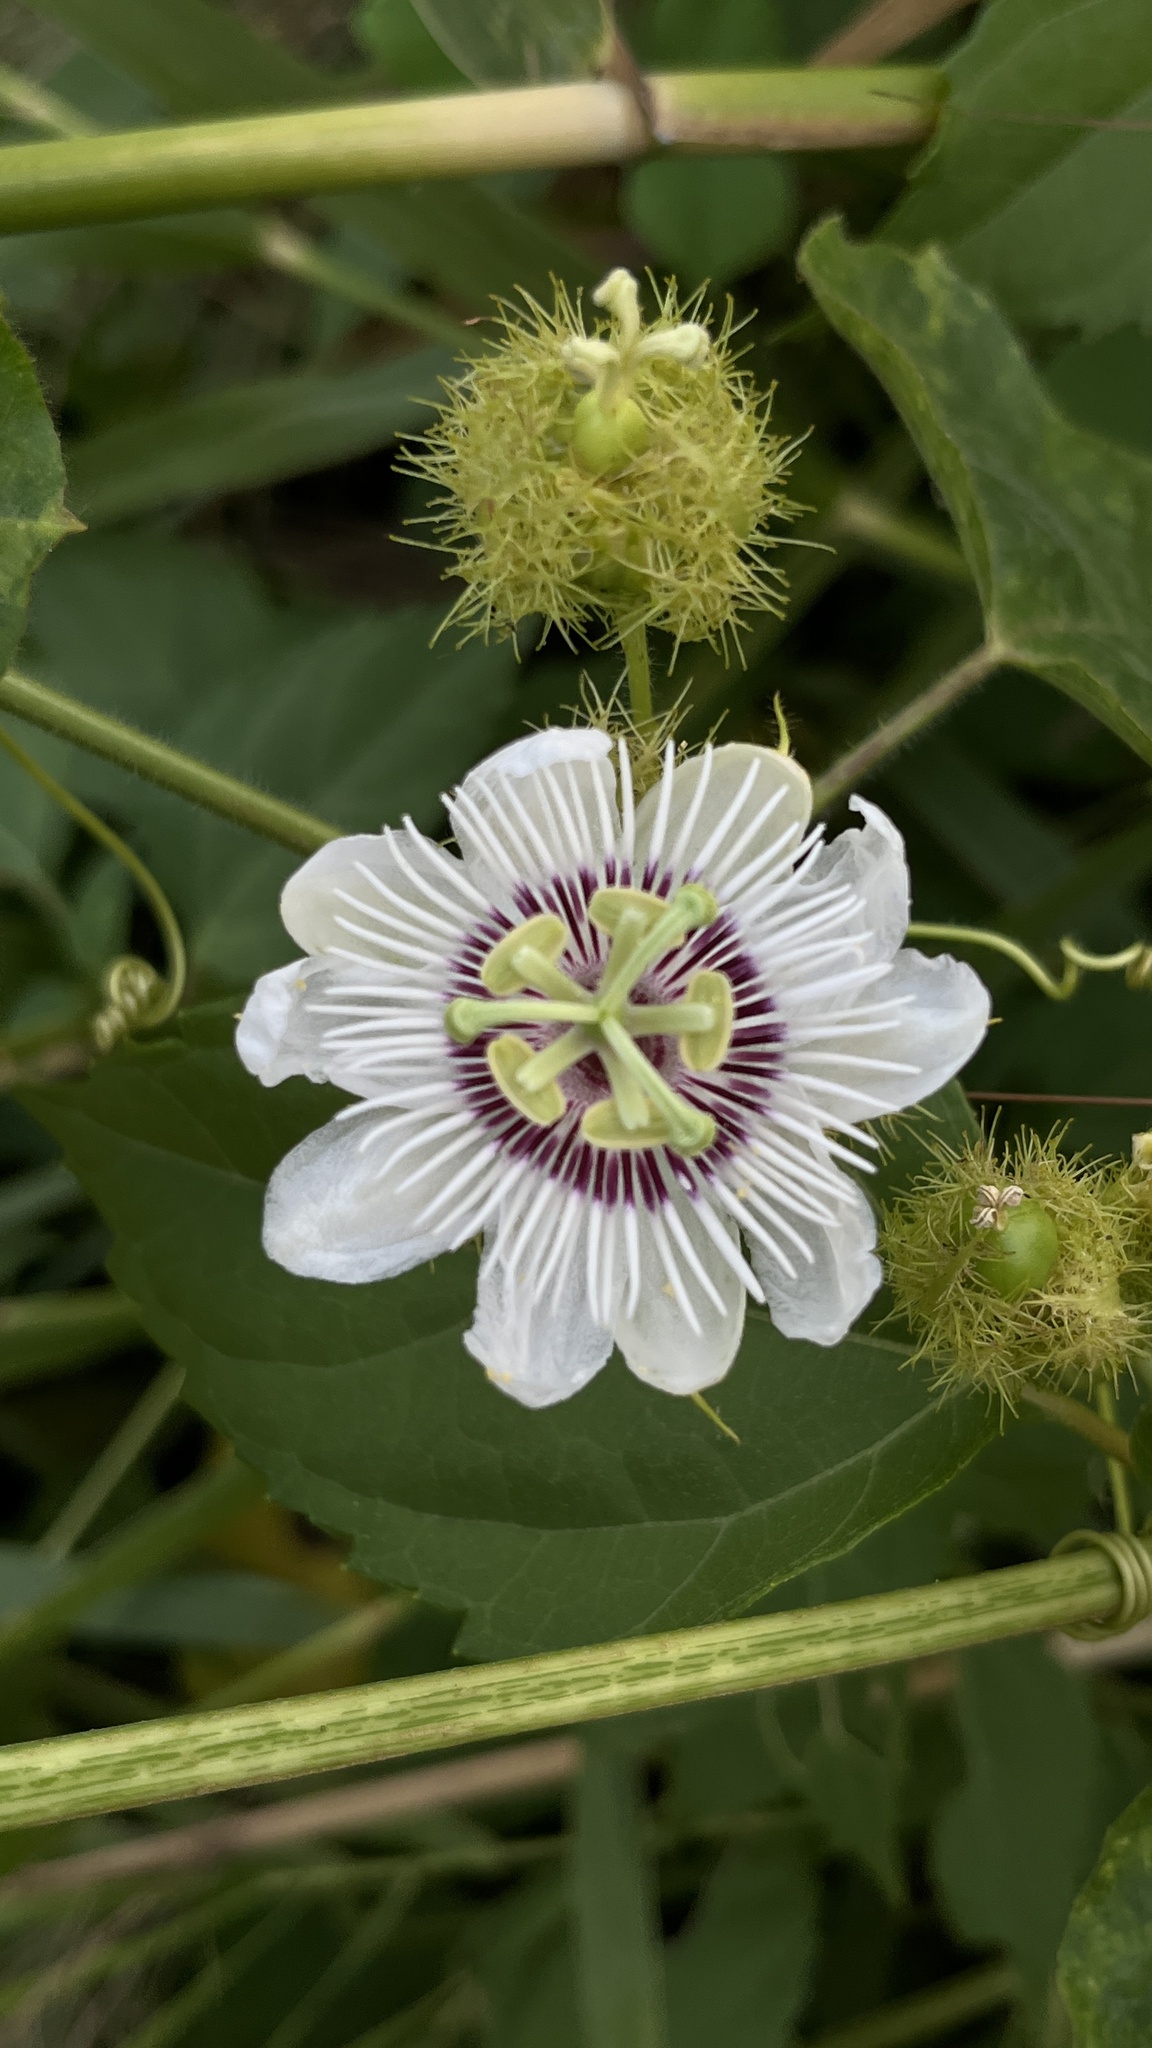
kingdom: Plantae
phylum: Tracheophyta
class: Magnoliopsida
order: Malpighiales
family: Passifloraceae
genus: Passiflora
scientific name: Passiflora vesicaria
